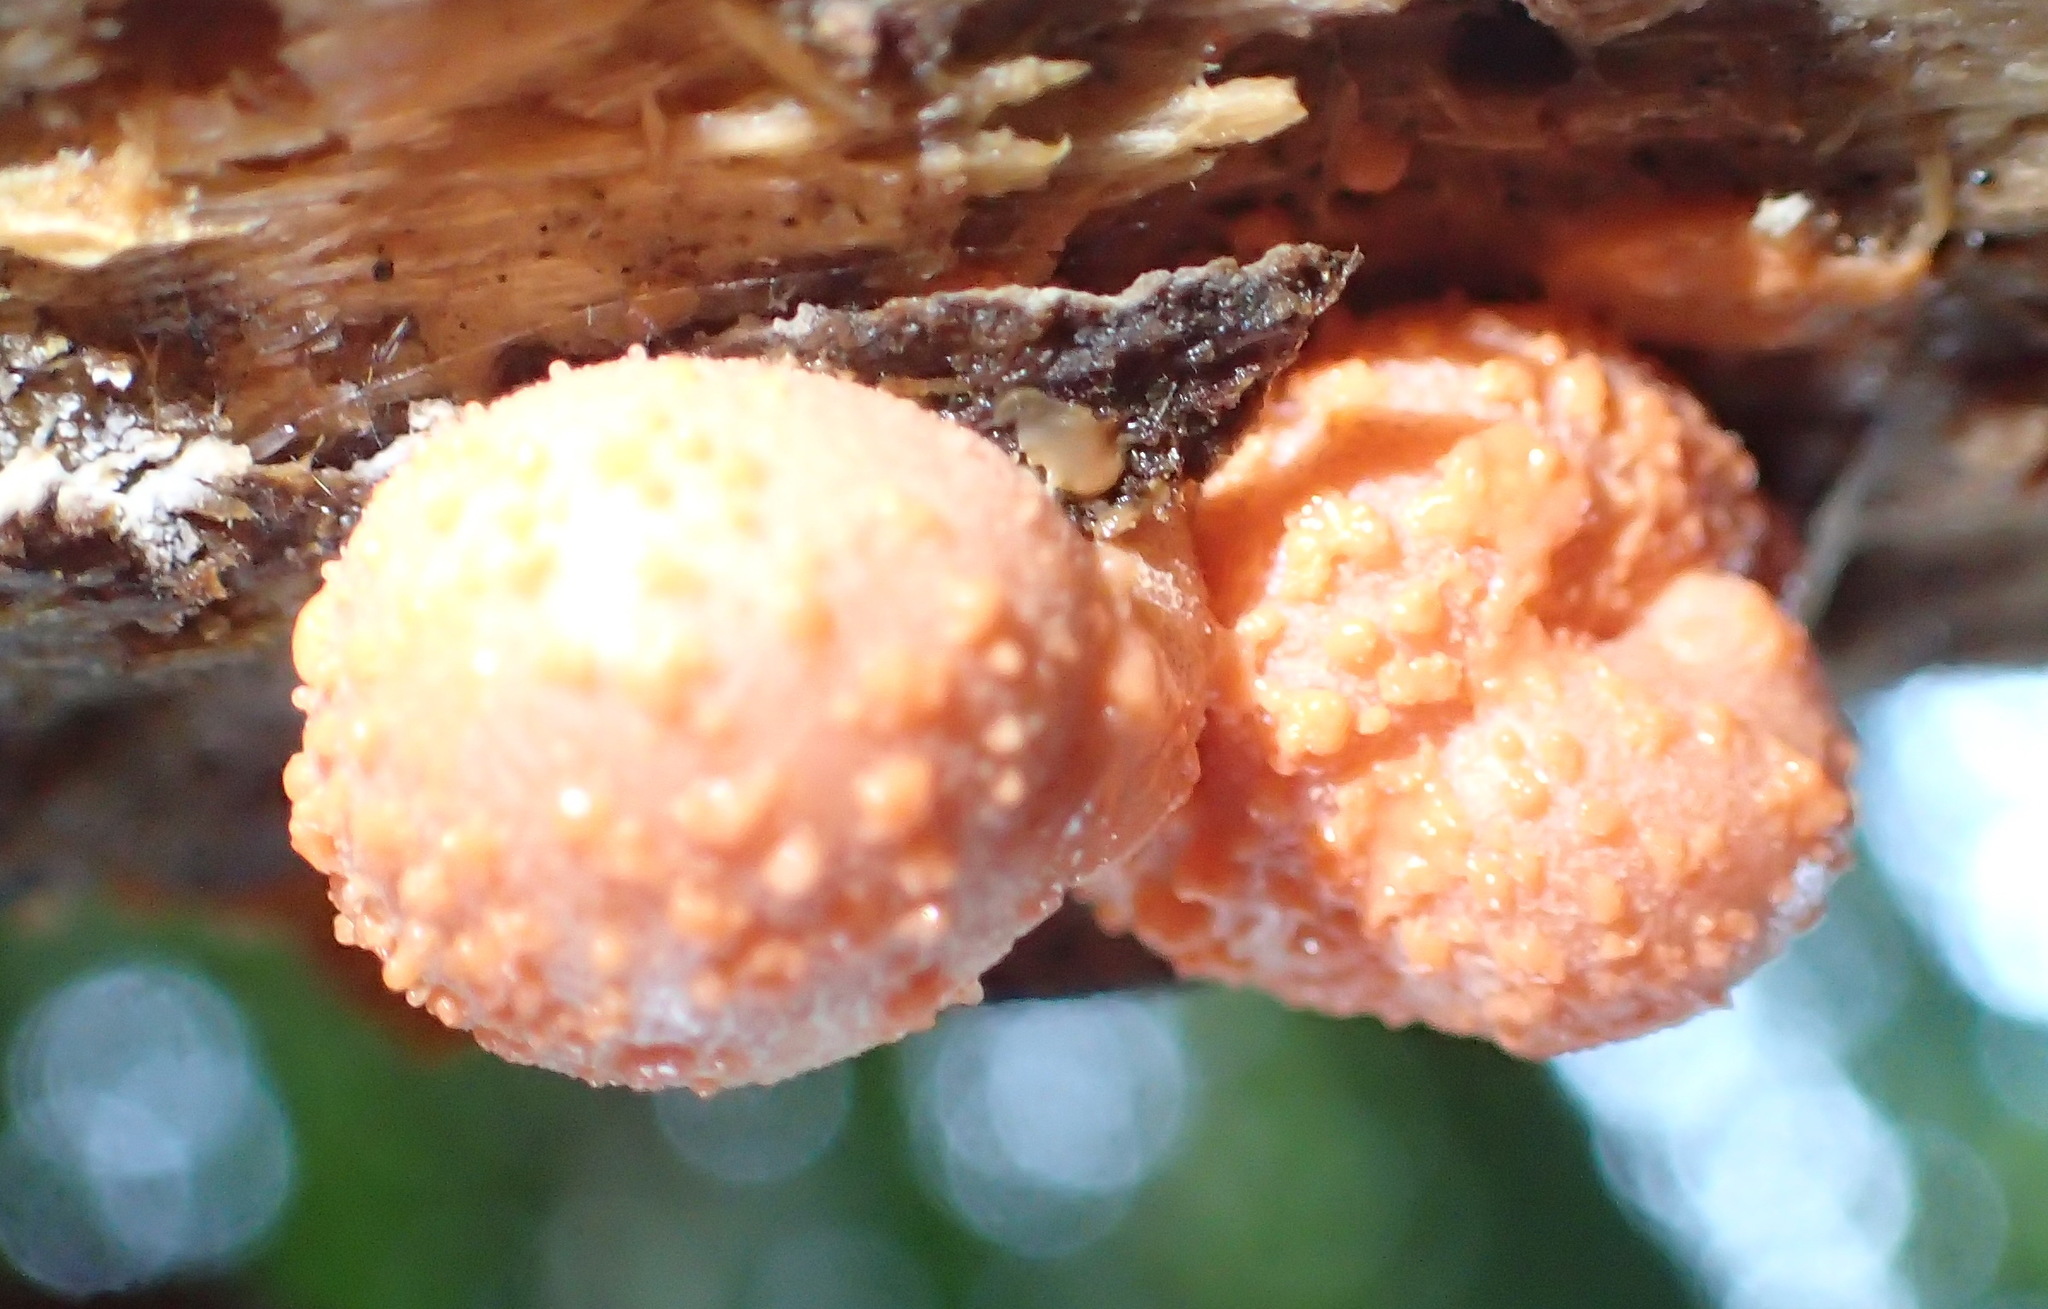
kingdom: Protozoa
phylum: Mycetozoa
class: Myxomycetes
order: Cribrariales
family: Tubiferaceae
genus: Lycogala
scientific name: Lycogala epidendrum
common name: Wolf's milk
